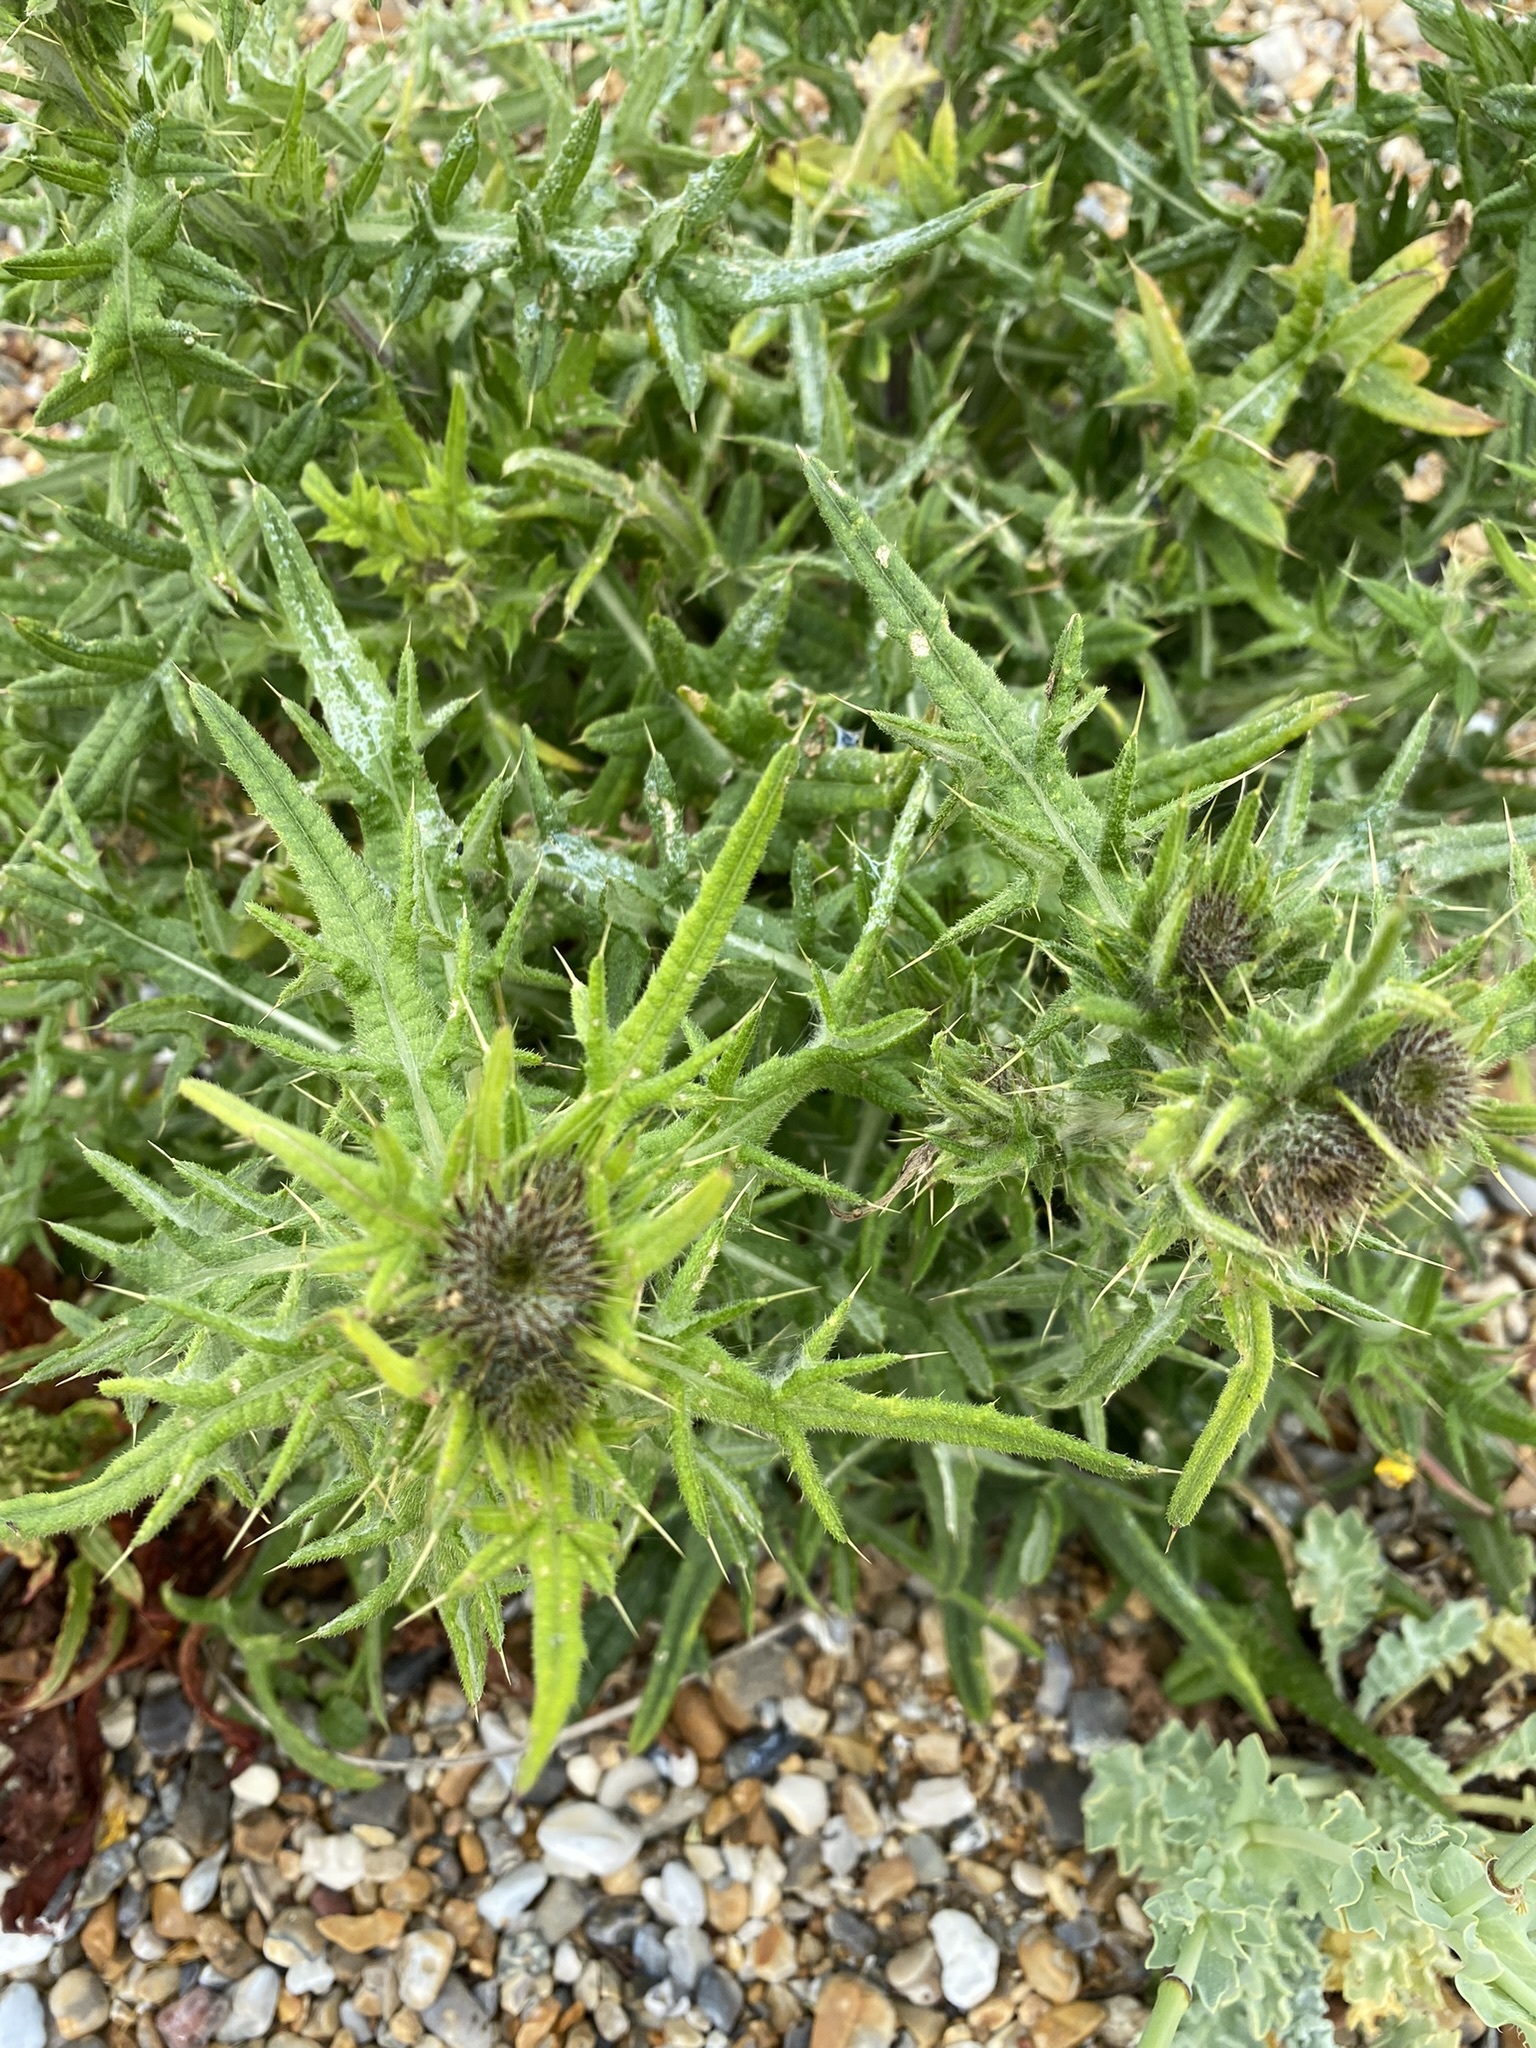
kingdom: Plantae
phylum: Tracheophyta
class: Magnoliopsida
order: Asterales
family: Asteraceae
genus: Cirsium
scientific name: Cirsium vulgare
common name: Bull thistle
